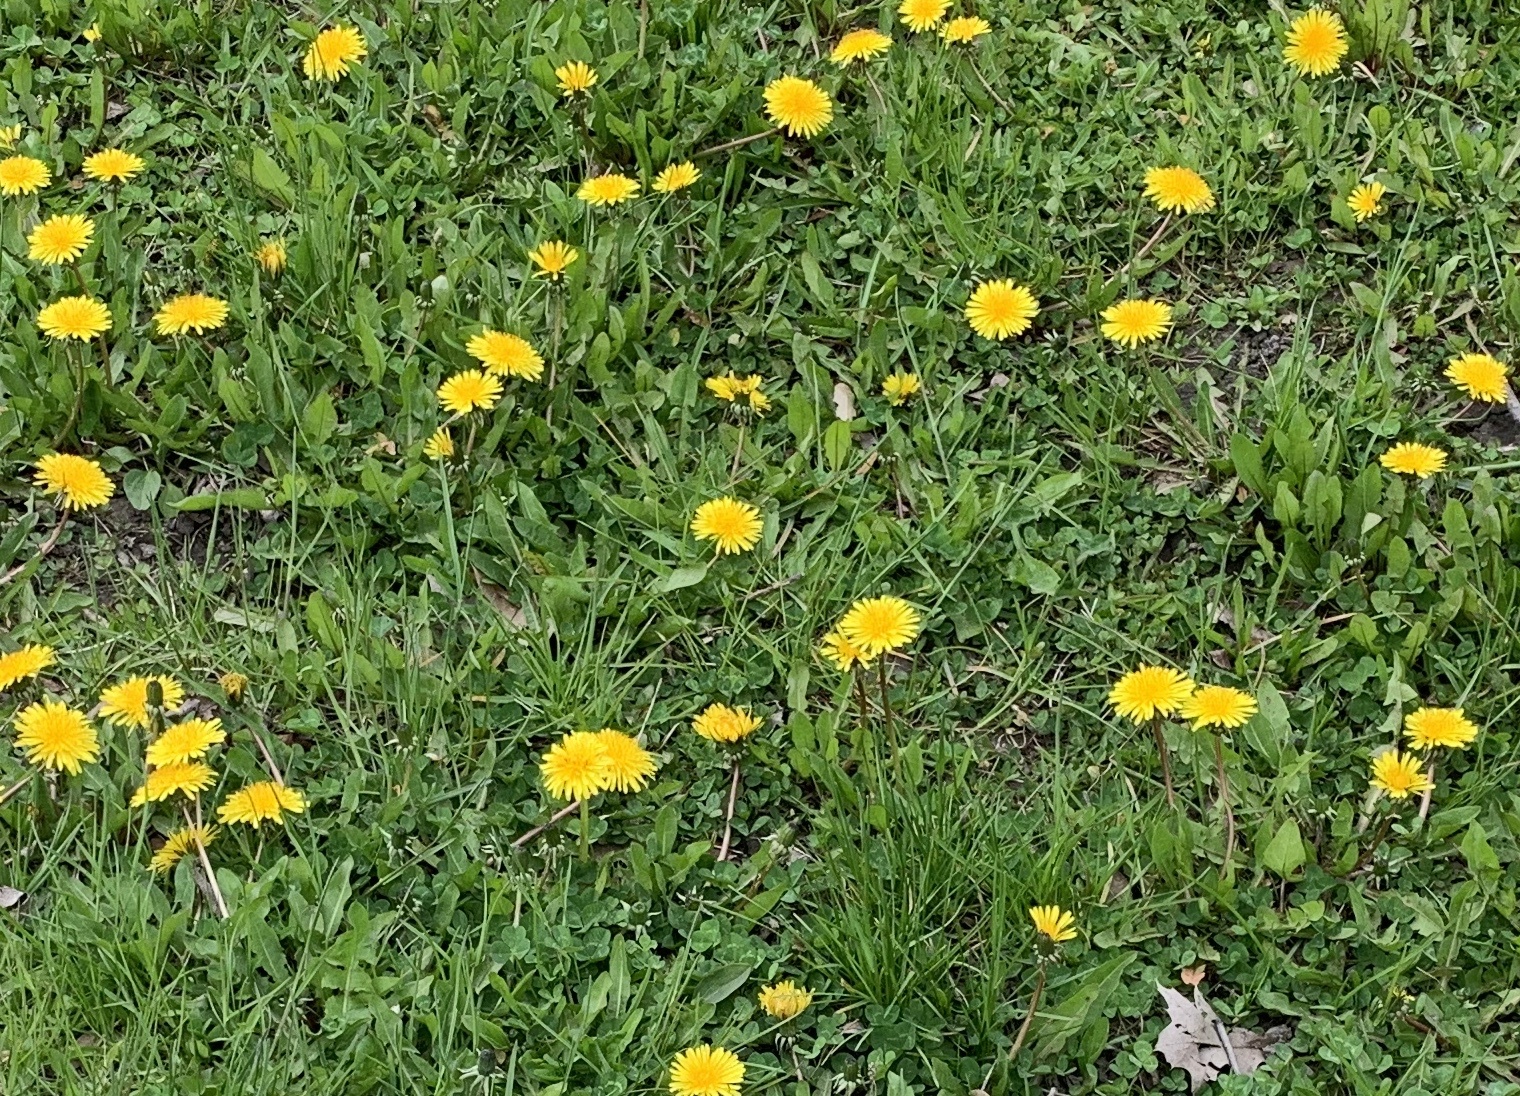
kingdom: Plantae
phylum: Tracheophyta
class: Magnoliopsida
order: Asterales
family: Asteraceae
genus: Taraxacum
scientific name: Taraxacum officinale
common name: Common dandelion
